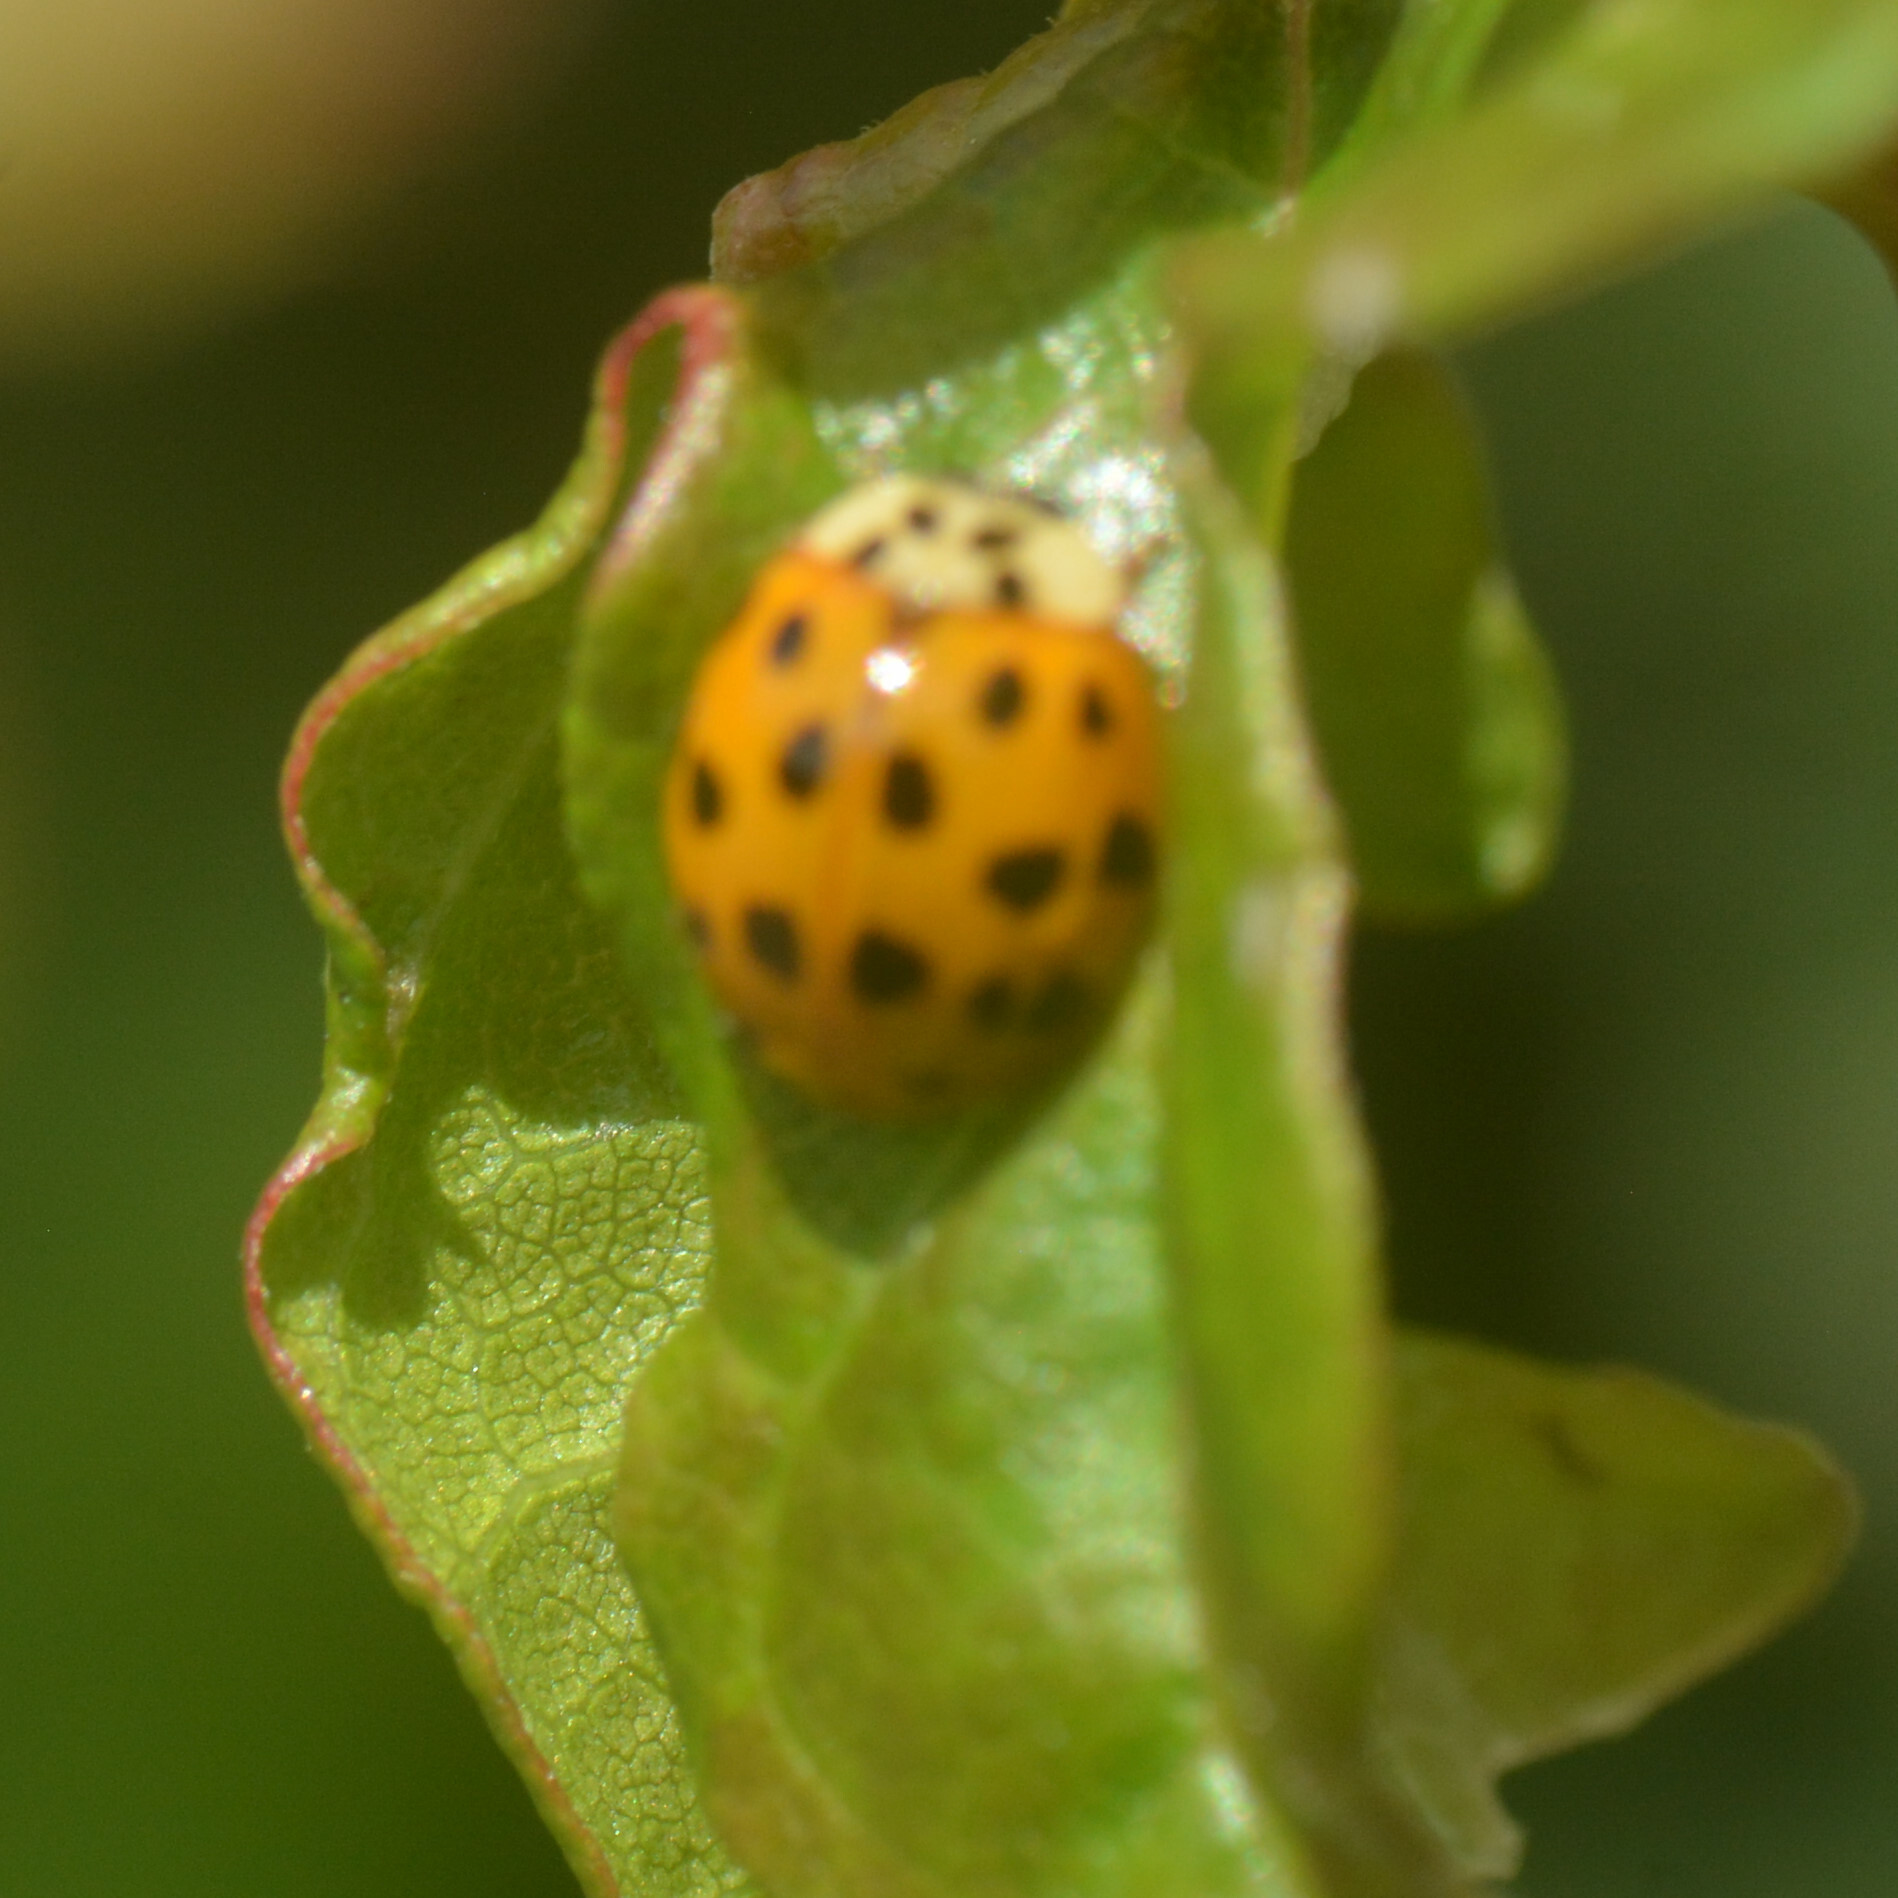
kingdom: Animalia
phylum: Arthropoda
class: Insecta
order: Coleoptera
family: Coccinellidae
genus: Harmonia
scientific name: Harmonia axyridis
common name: Harlequin ladybird
